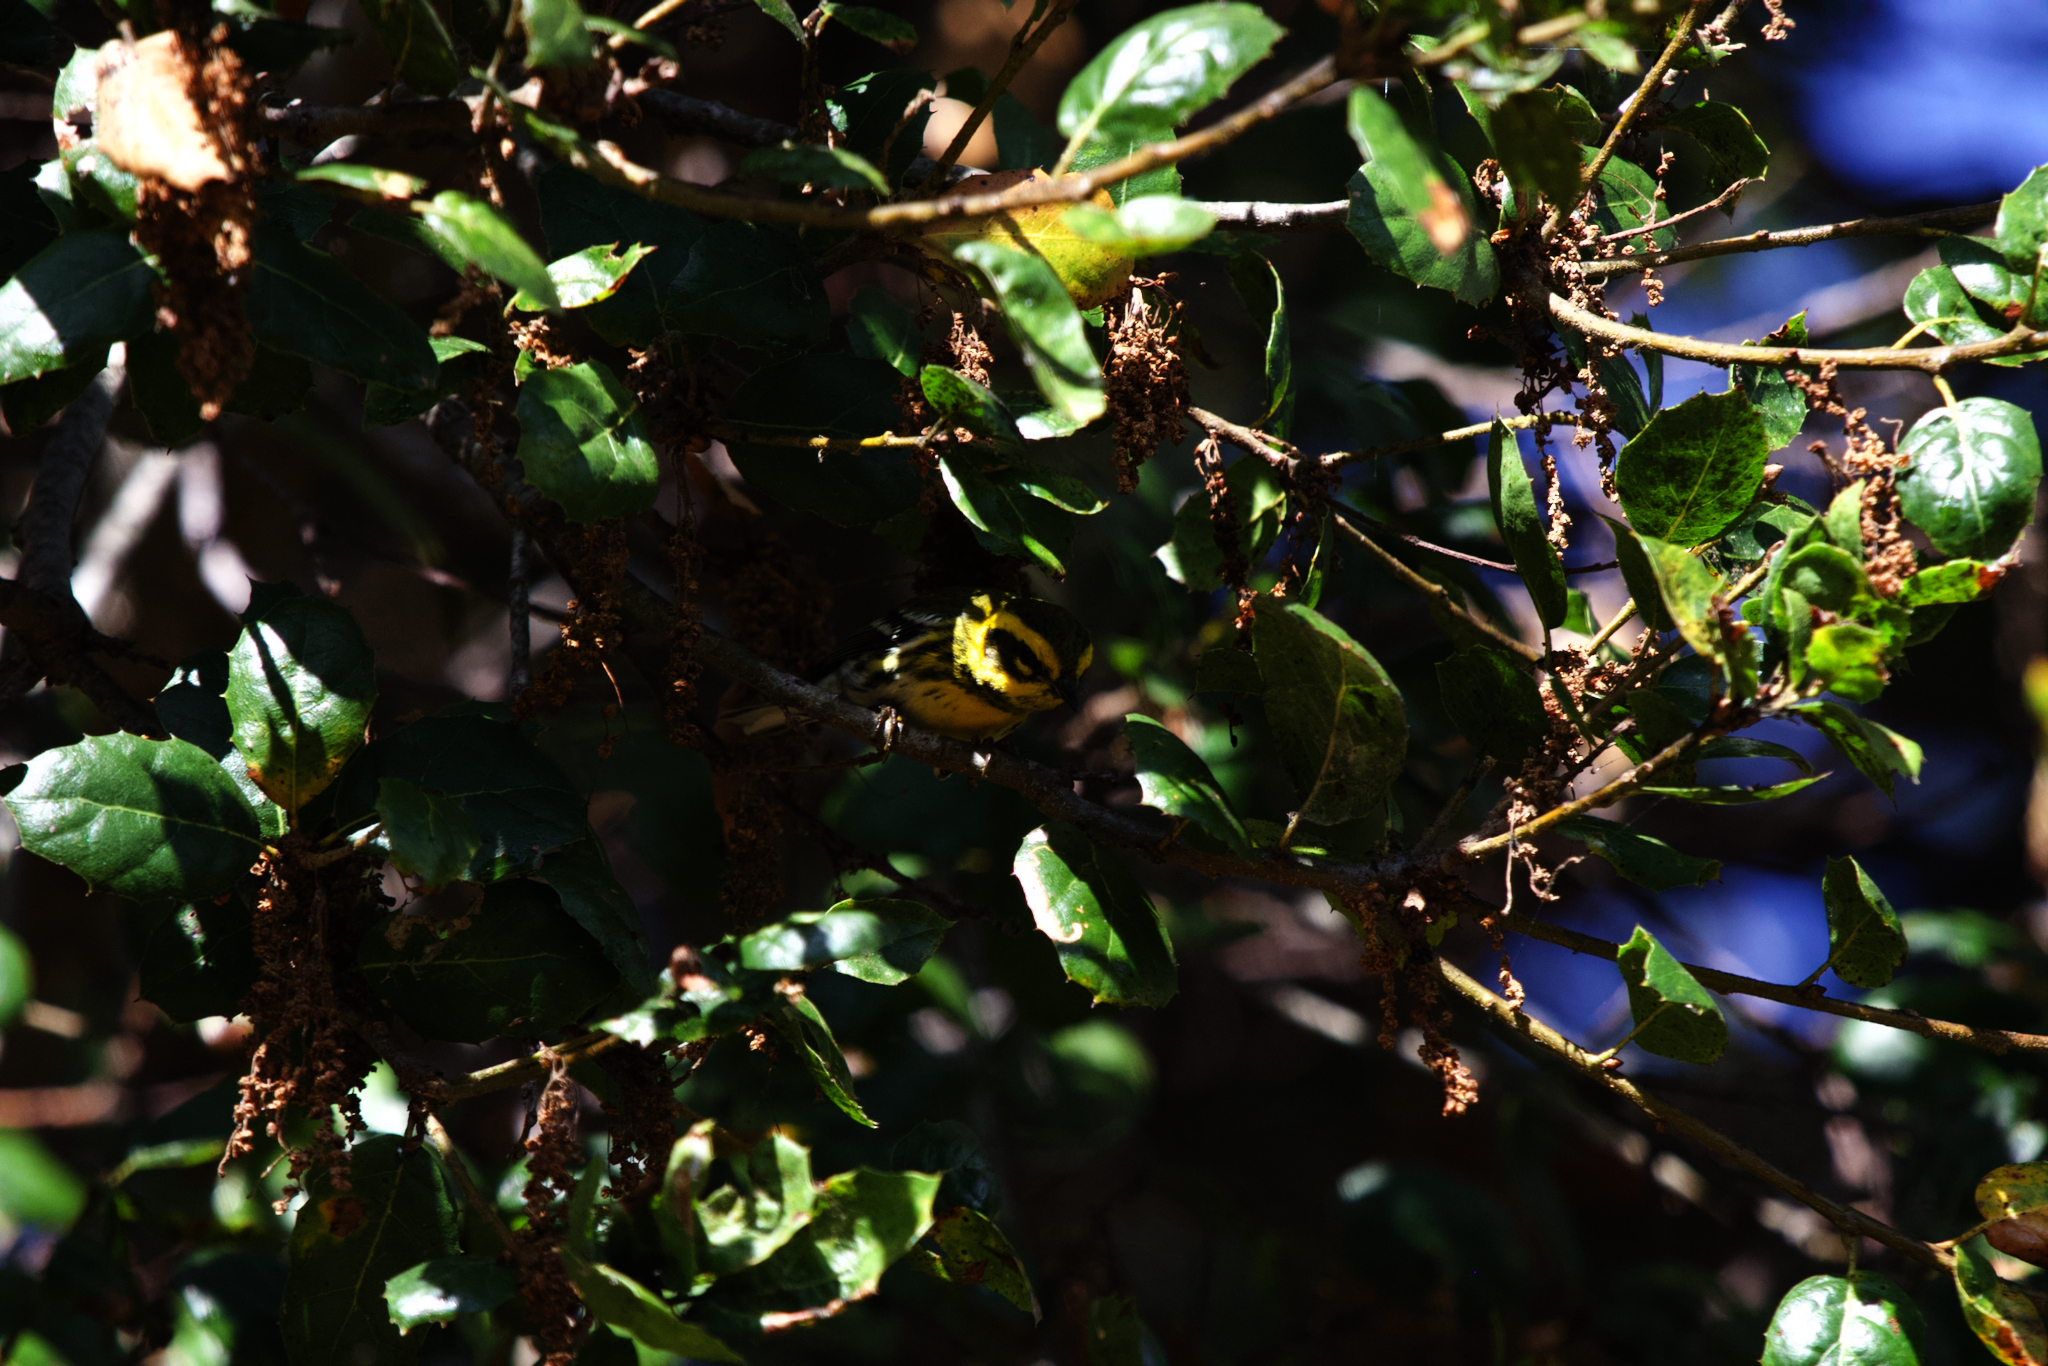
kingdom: Animalia
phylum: Chordata
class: Aves
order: Passeriformes
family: Parulidae
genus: Setophaga
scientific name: Setophaga townsendi
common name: Townsend's warbler
